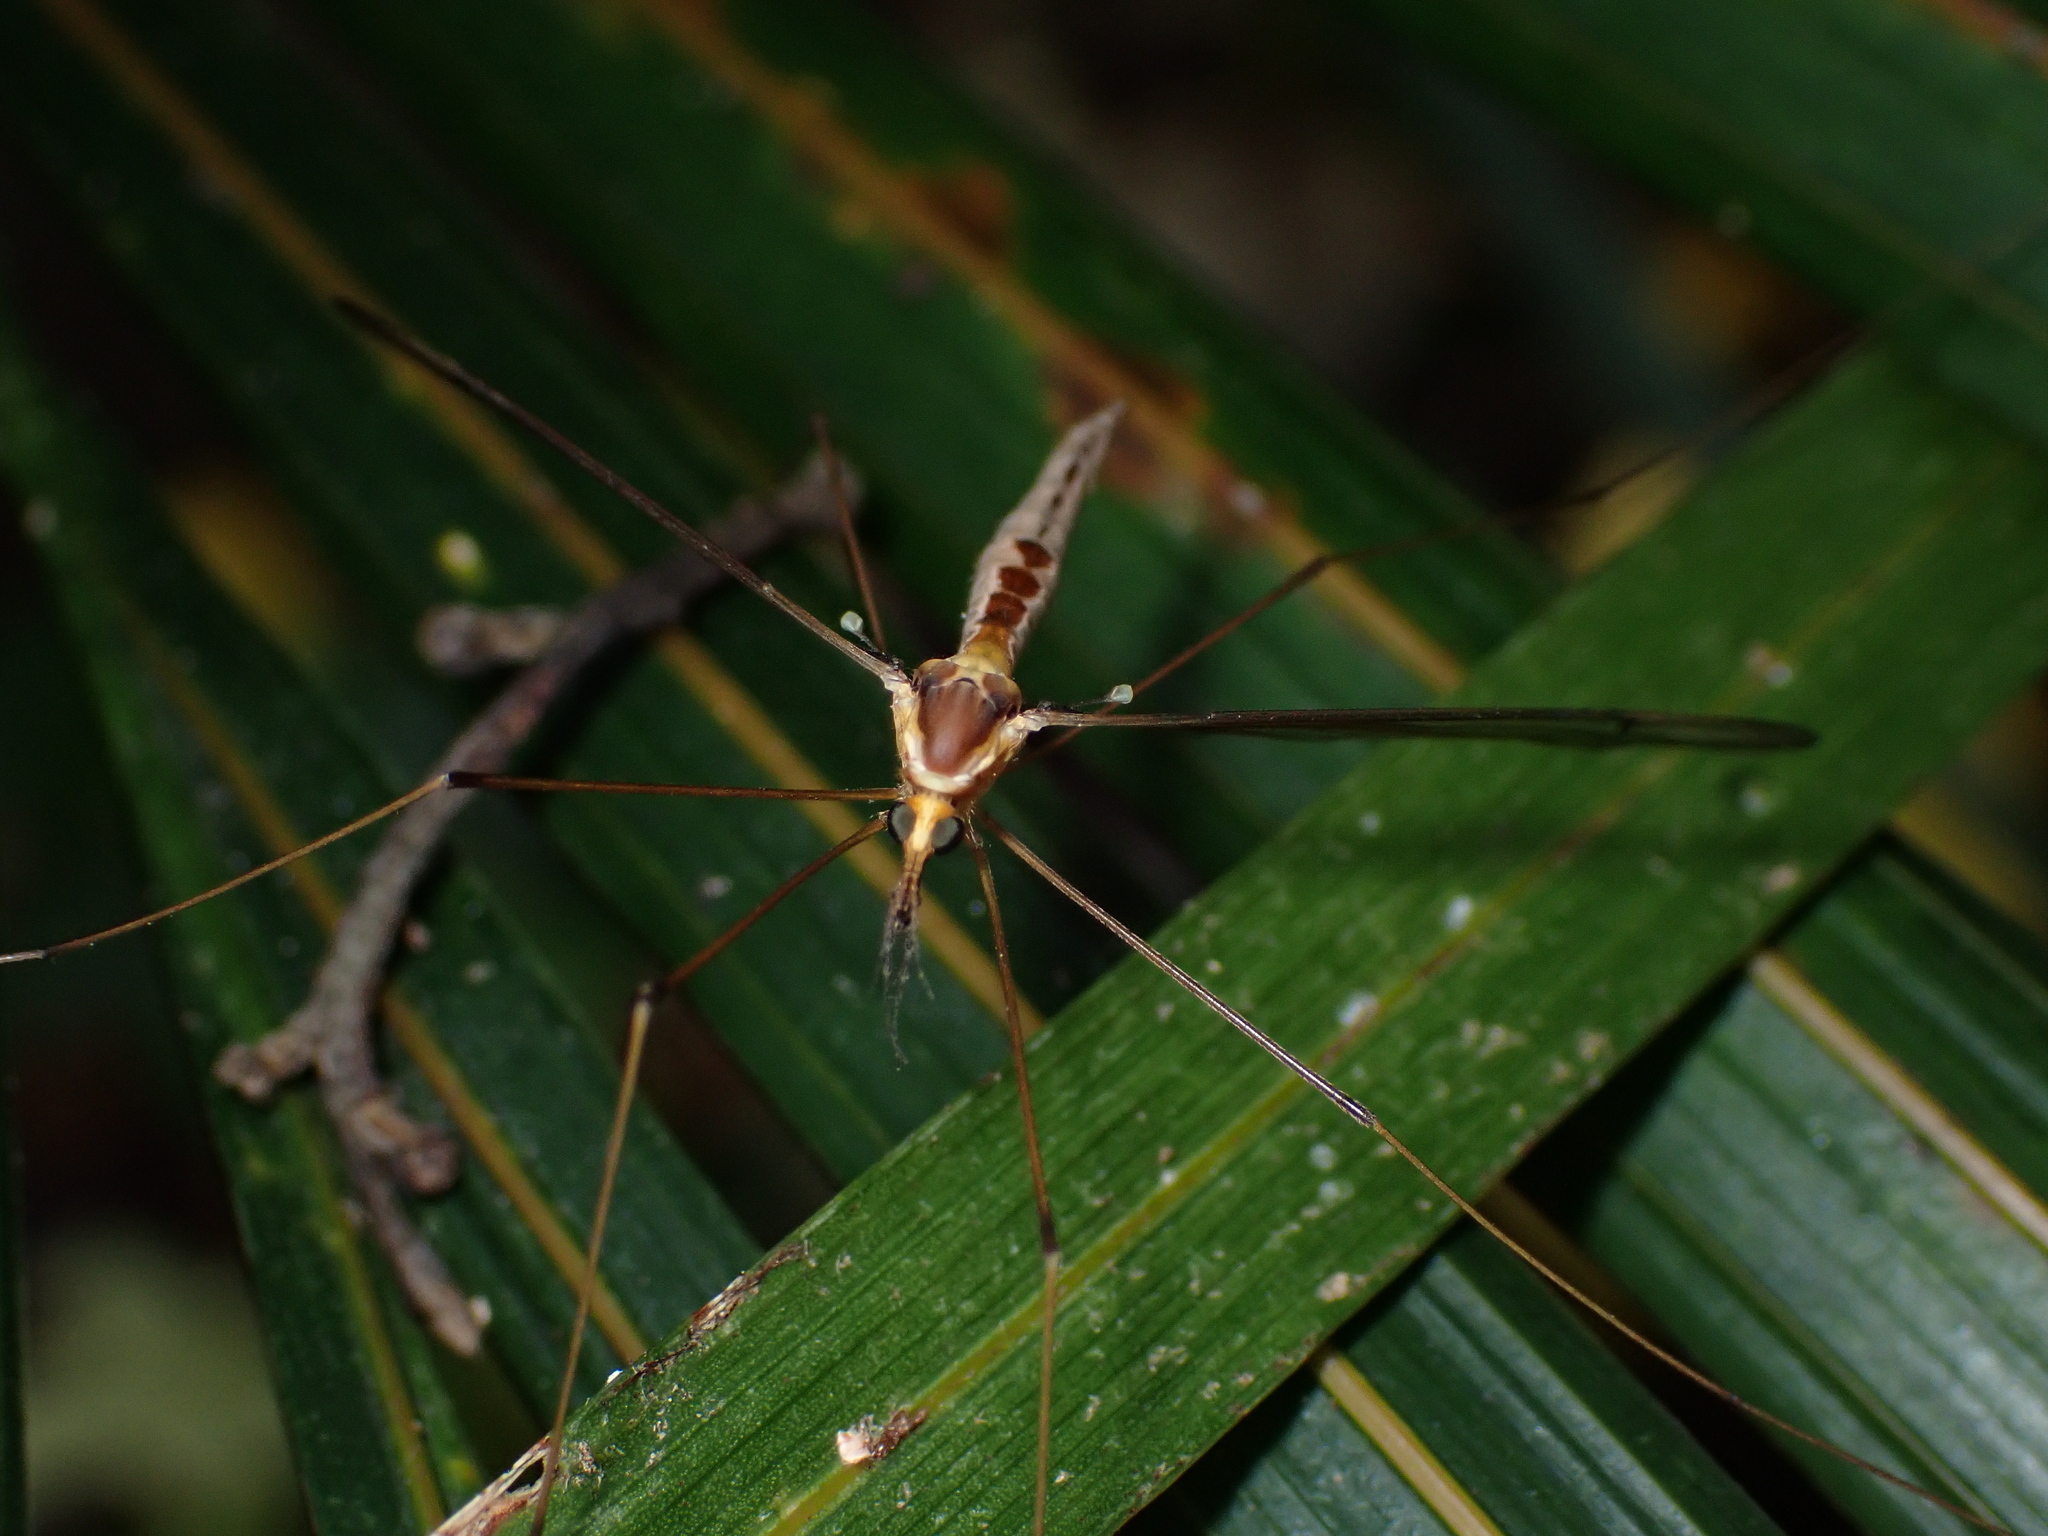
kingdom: Animalia
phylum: Arthropoda
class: Insecta
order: Diptera
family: Tipulidae
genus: Leptotarsus
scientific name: Leptotarsus albistigma
